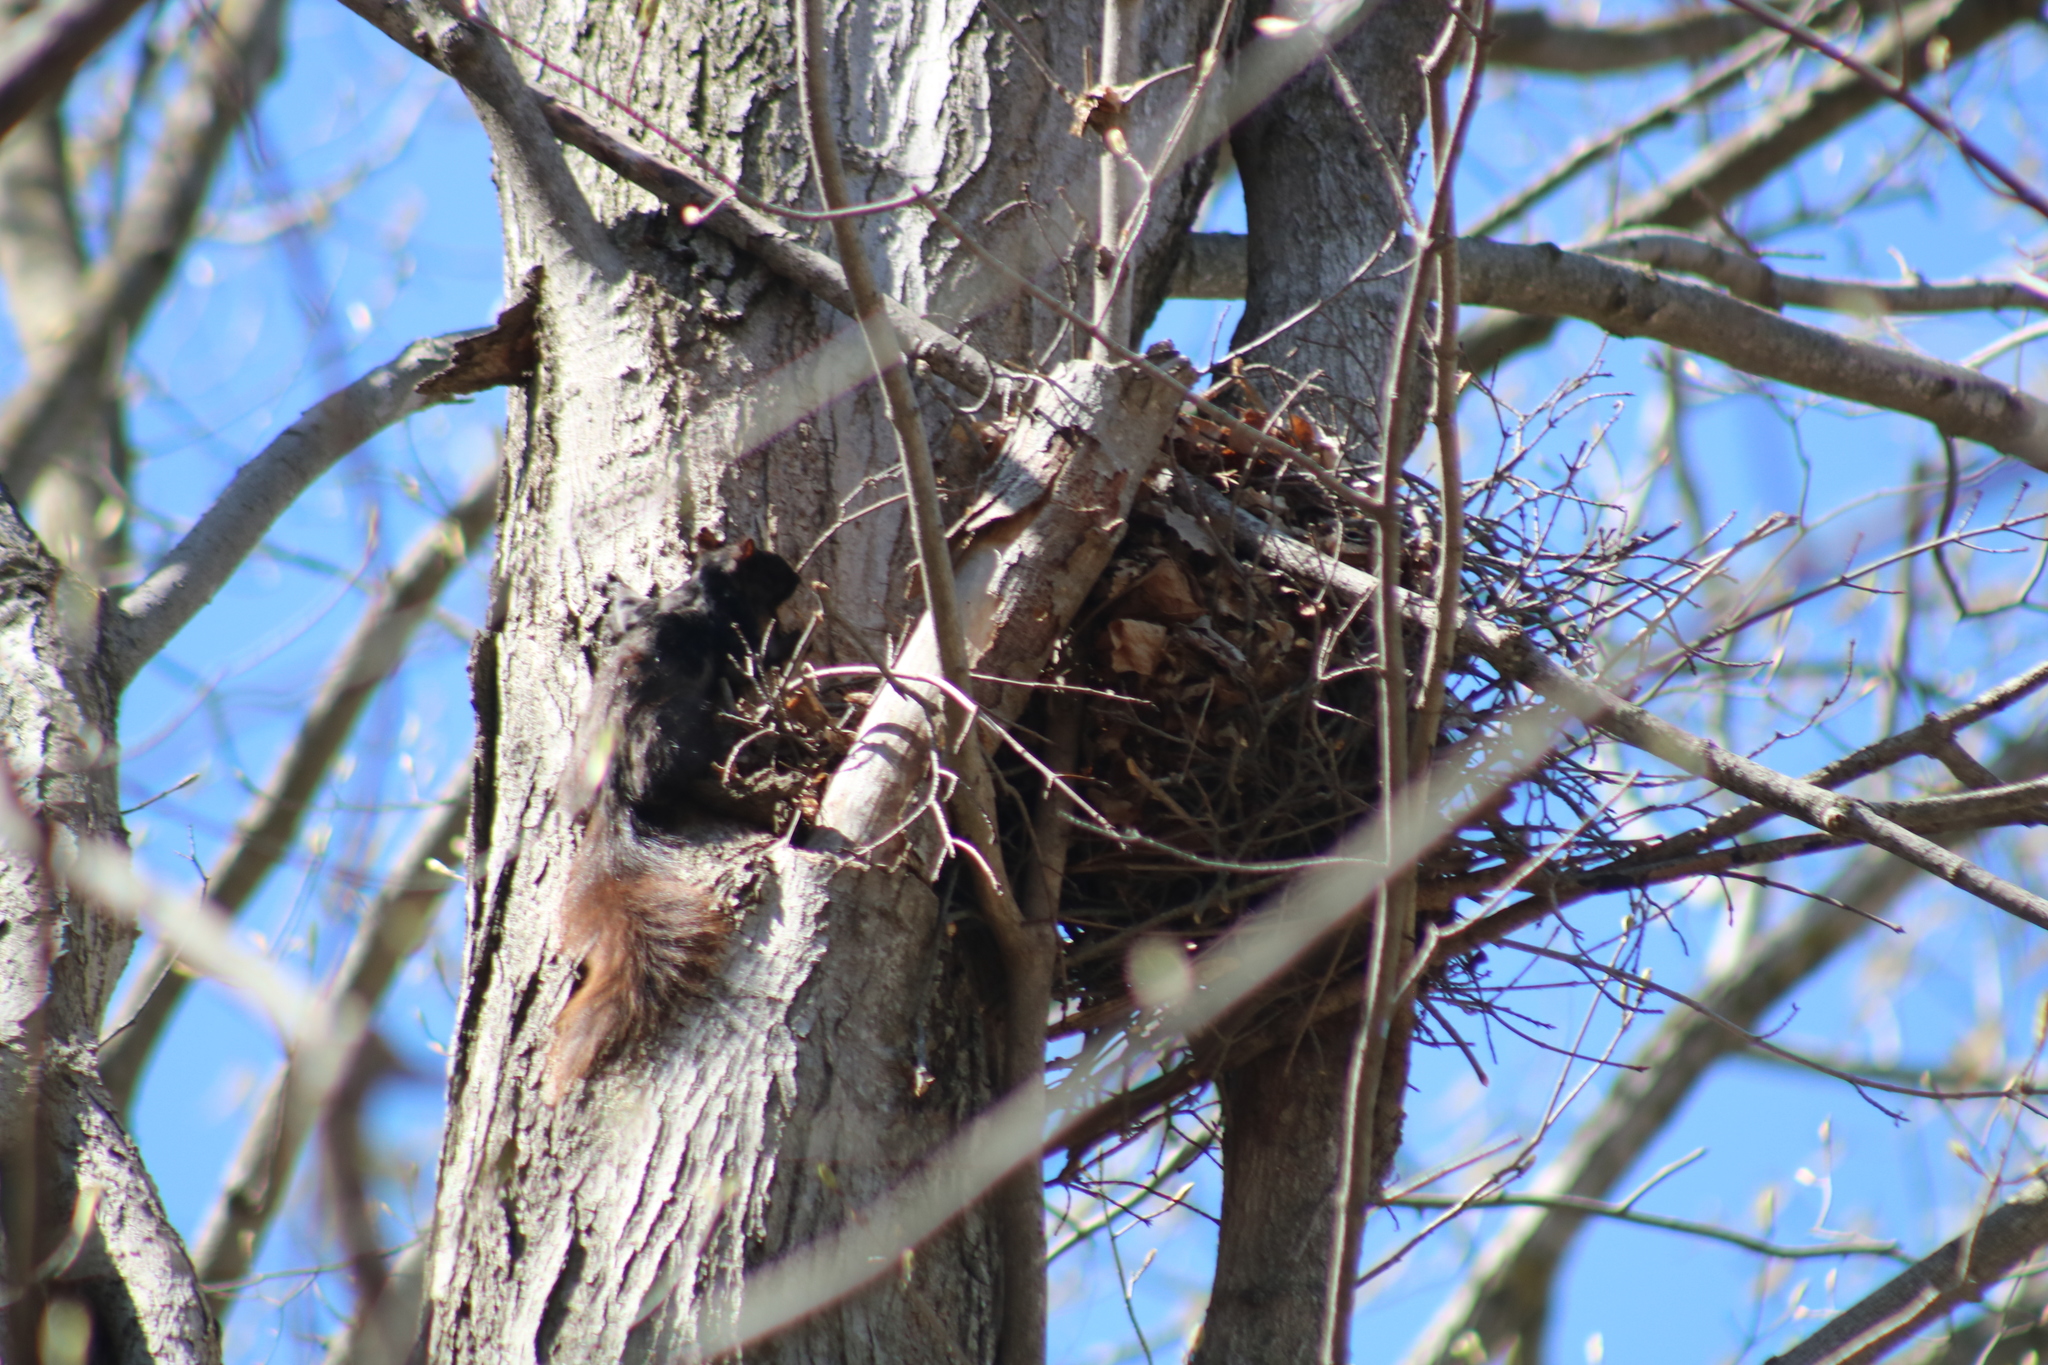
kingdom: Animalia
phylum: Chordata
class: Mammalia
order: Rodentia
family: Sciuridae
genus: Sciurus
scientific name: Sciurus carolinensis
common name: Eastern gray squirrel
